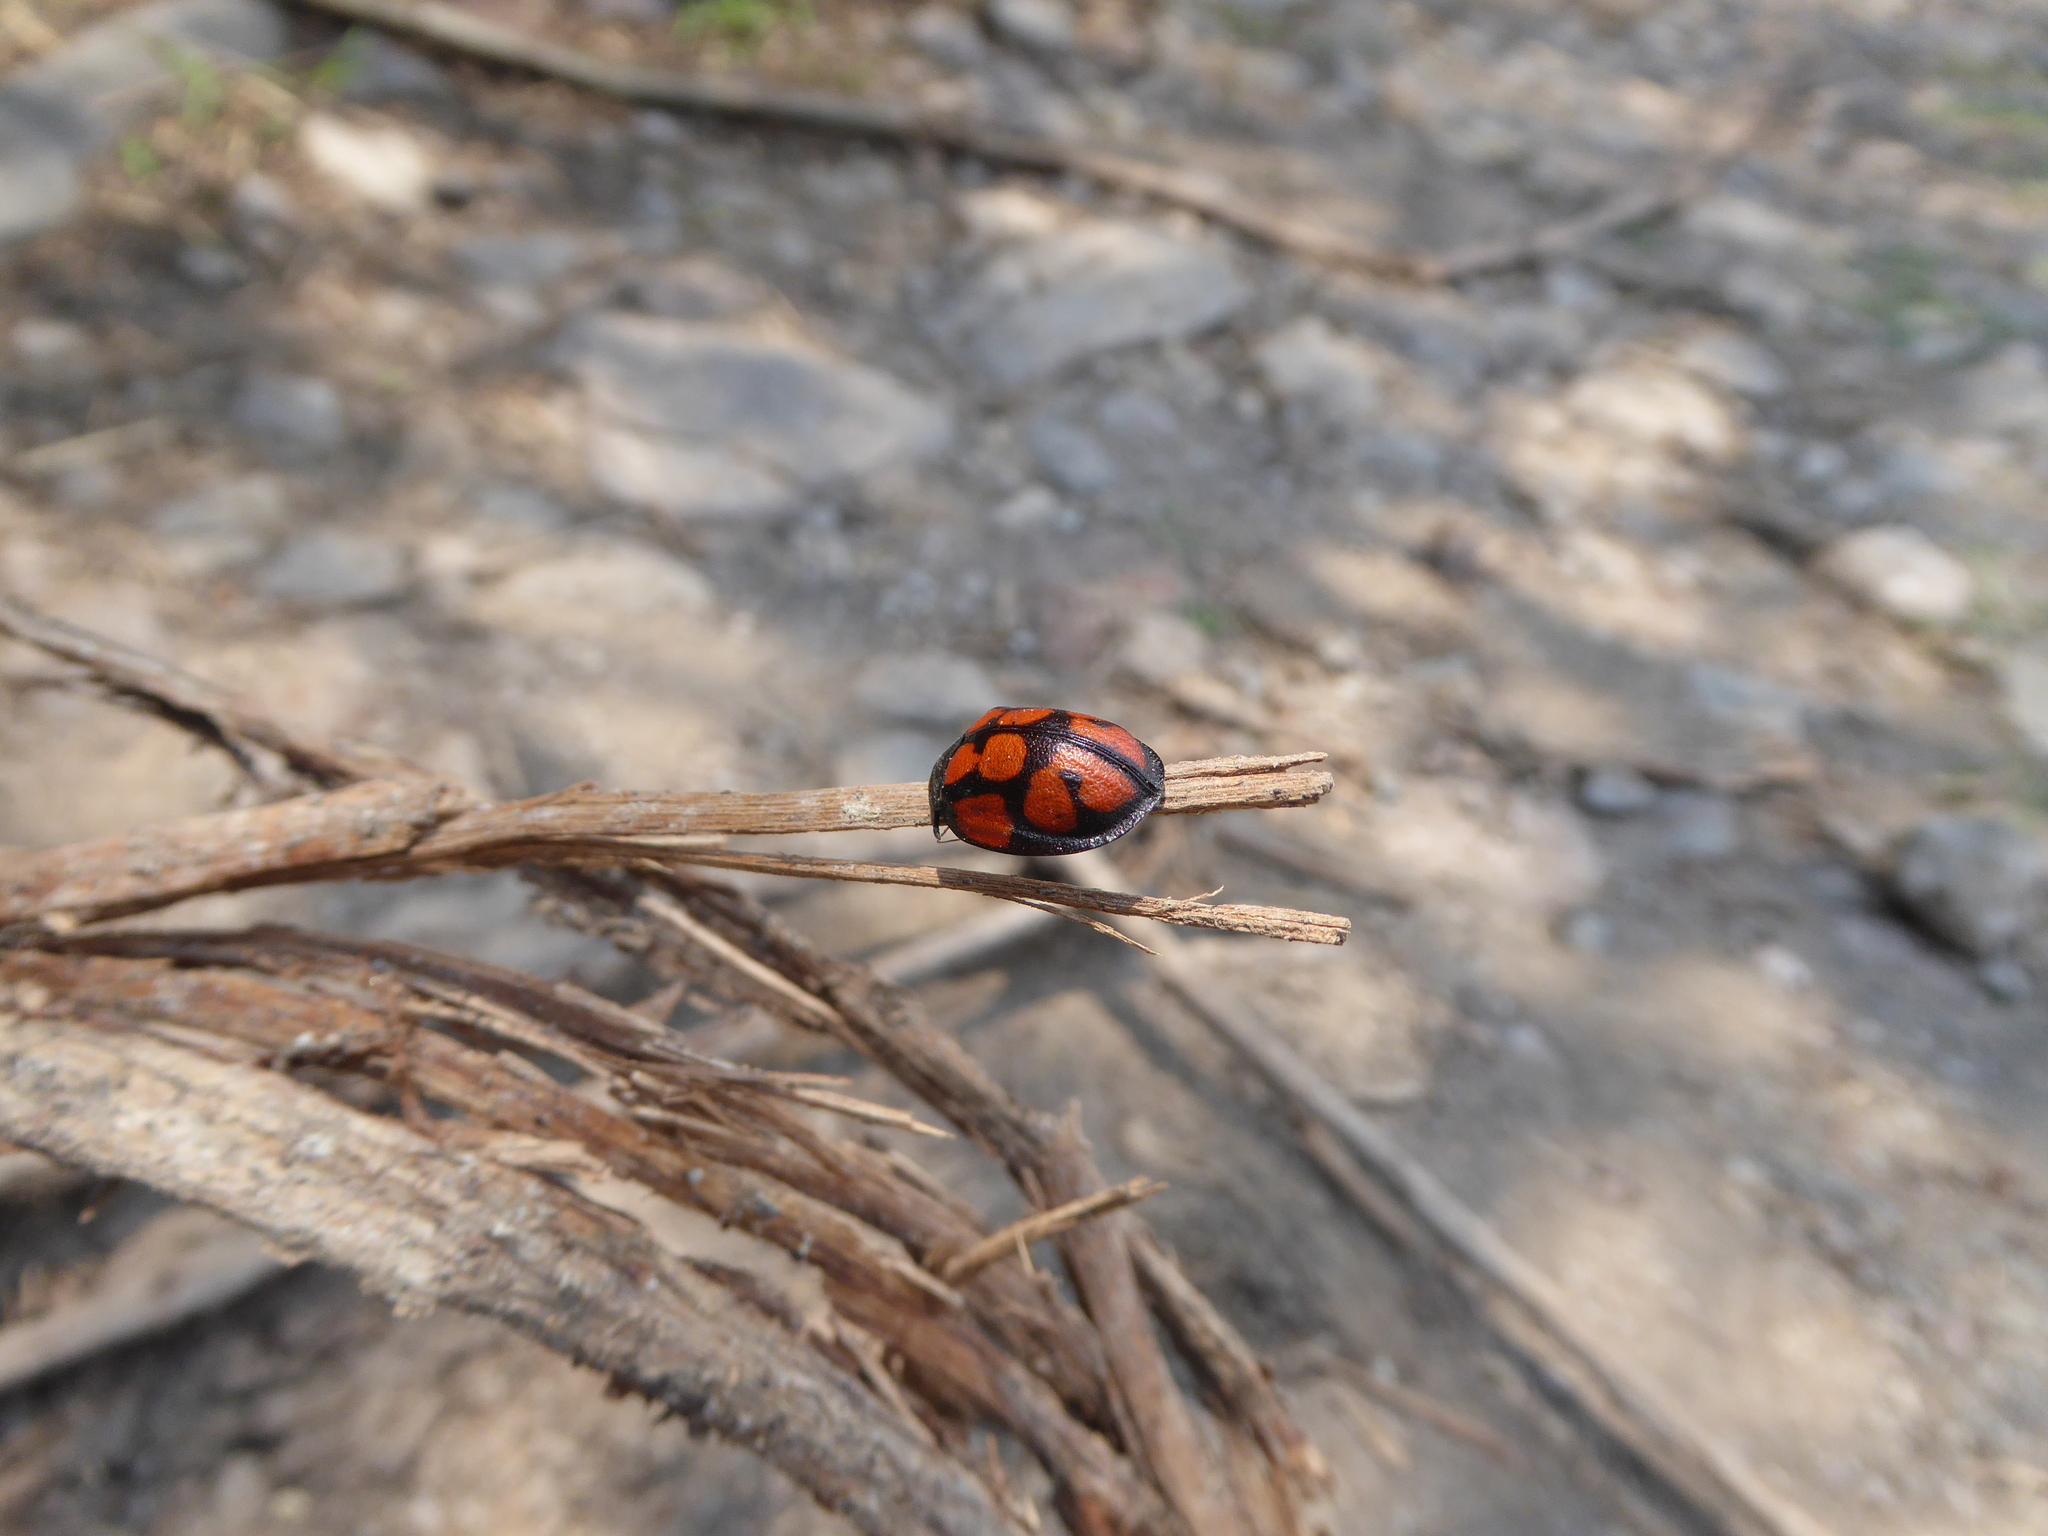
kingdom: Animalia
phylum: Arthropoda
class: Insecta
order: Coleoptera
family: Chrysomelidae
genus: Ogdoecosta
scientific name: Ogdoecosta juvenca
